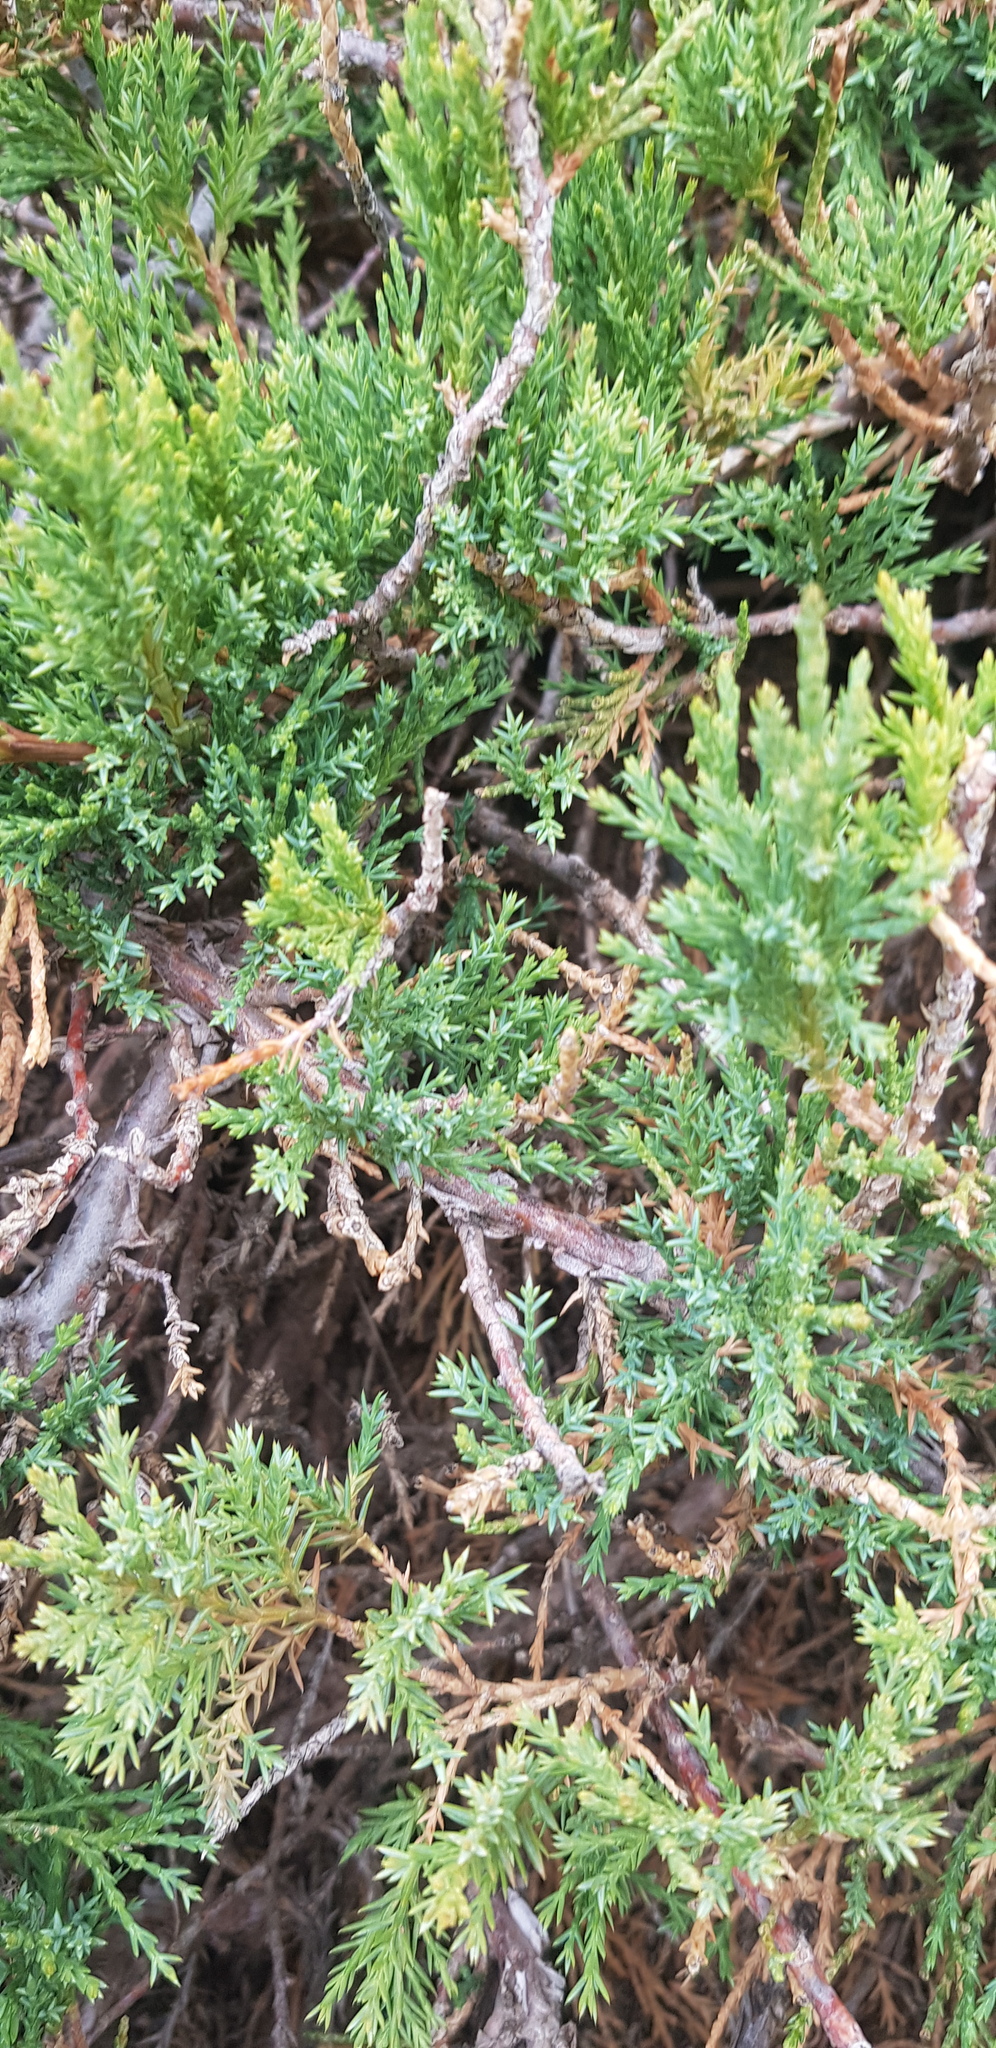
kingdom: Plantae
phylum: Tracheophyta
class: Pinopsida
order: Pinales
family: Cupressaceae
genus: Juniperus
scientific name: Juniperus sabina
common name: Savin
